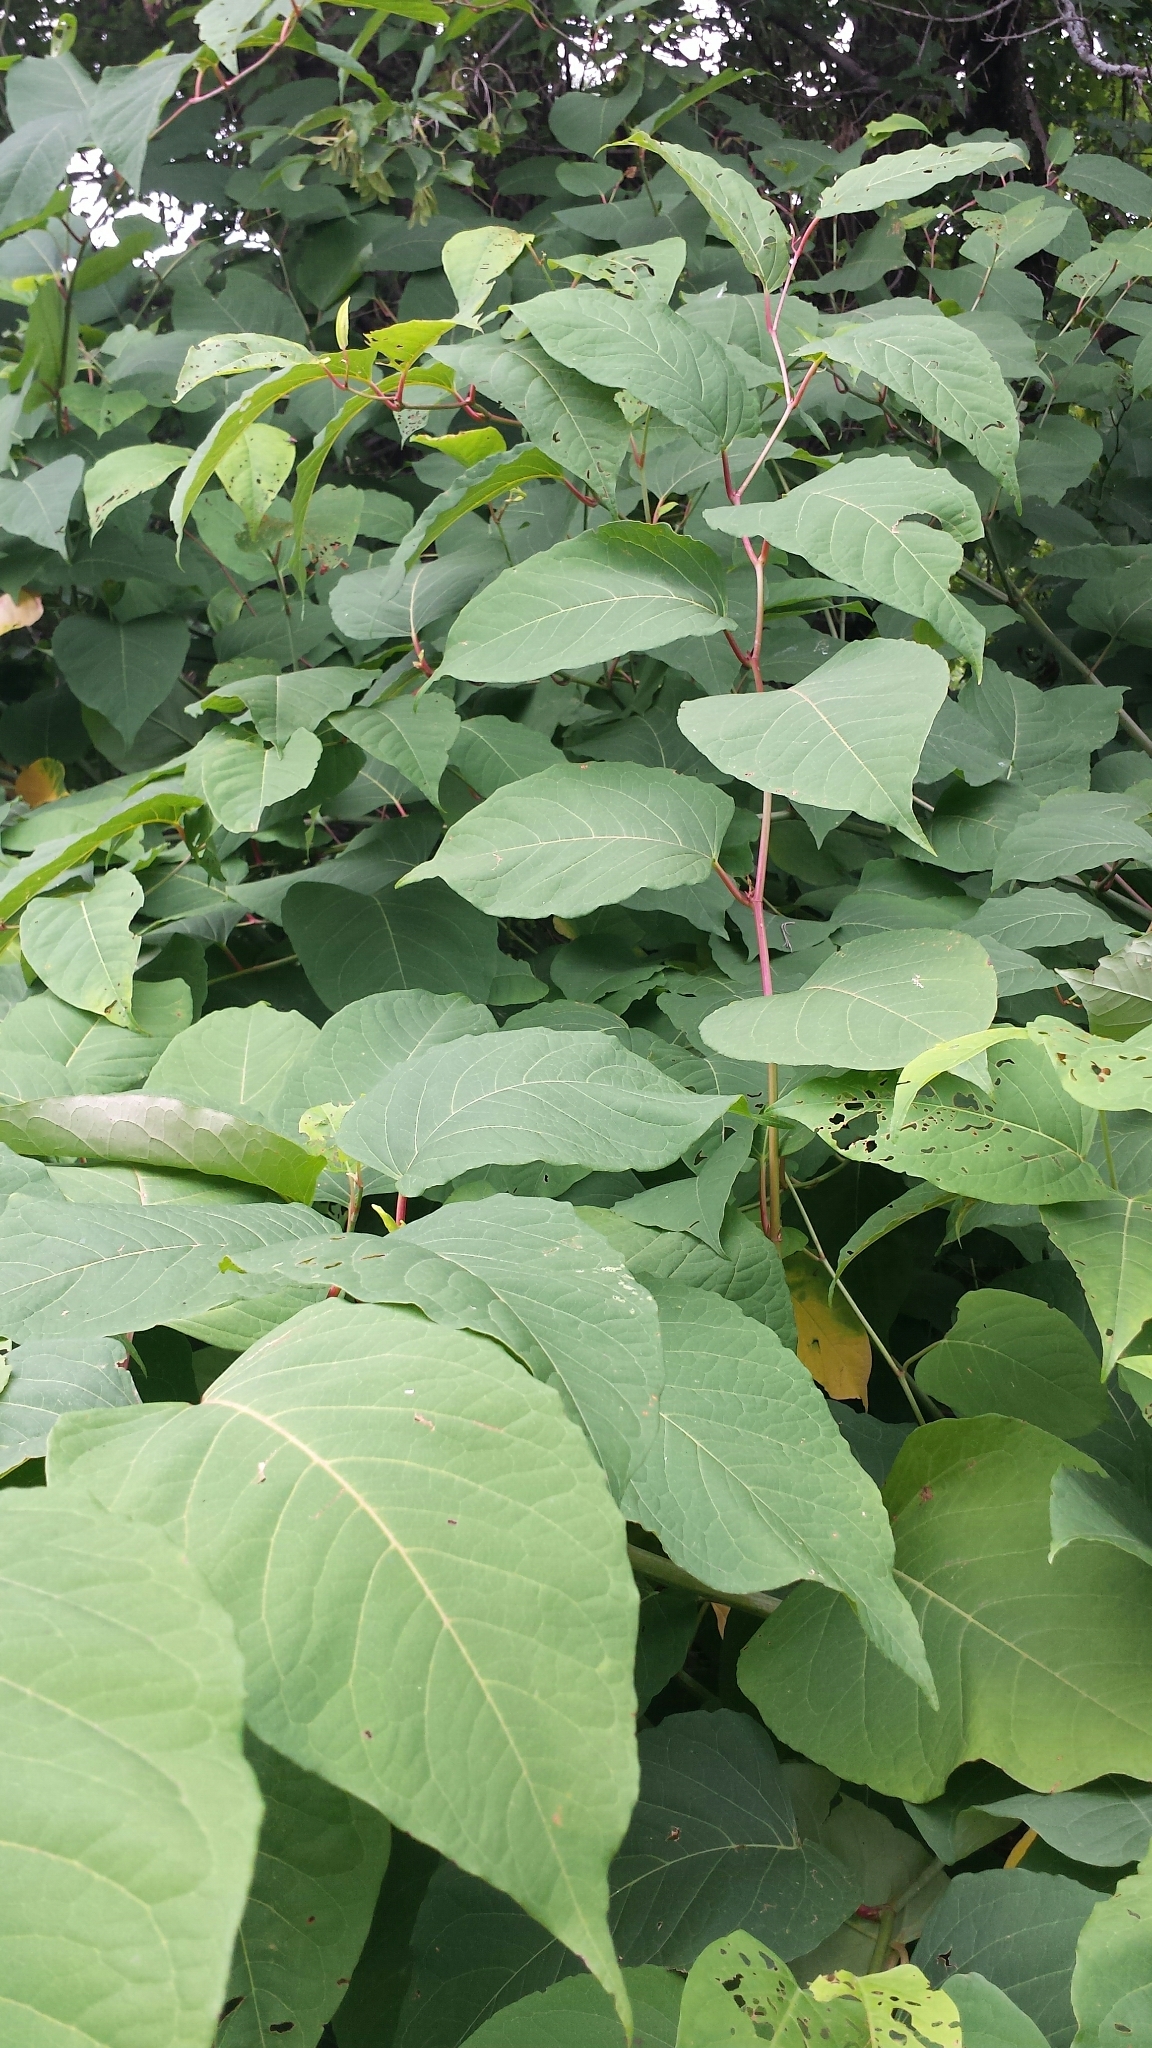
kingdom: Plantae
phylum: Tracheophyta
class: Magnoliopsida
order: Caryophyllales
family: Polygonaceae
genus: Reynoutria
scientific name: Reynoutria japonica
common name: Japanese knotweed
